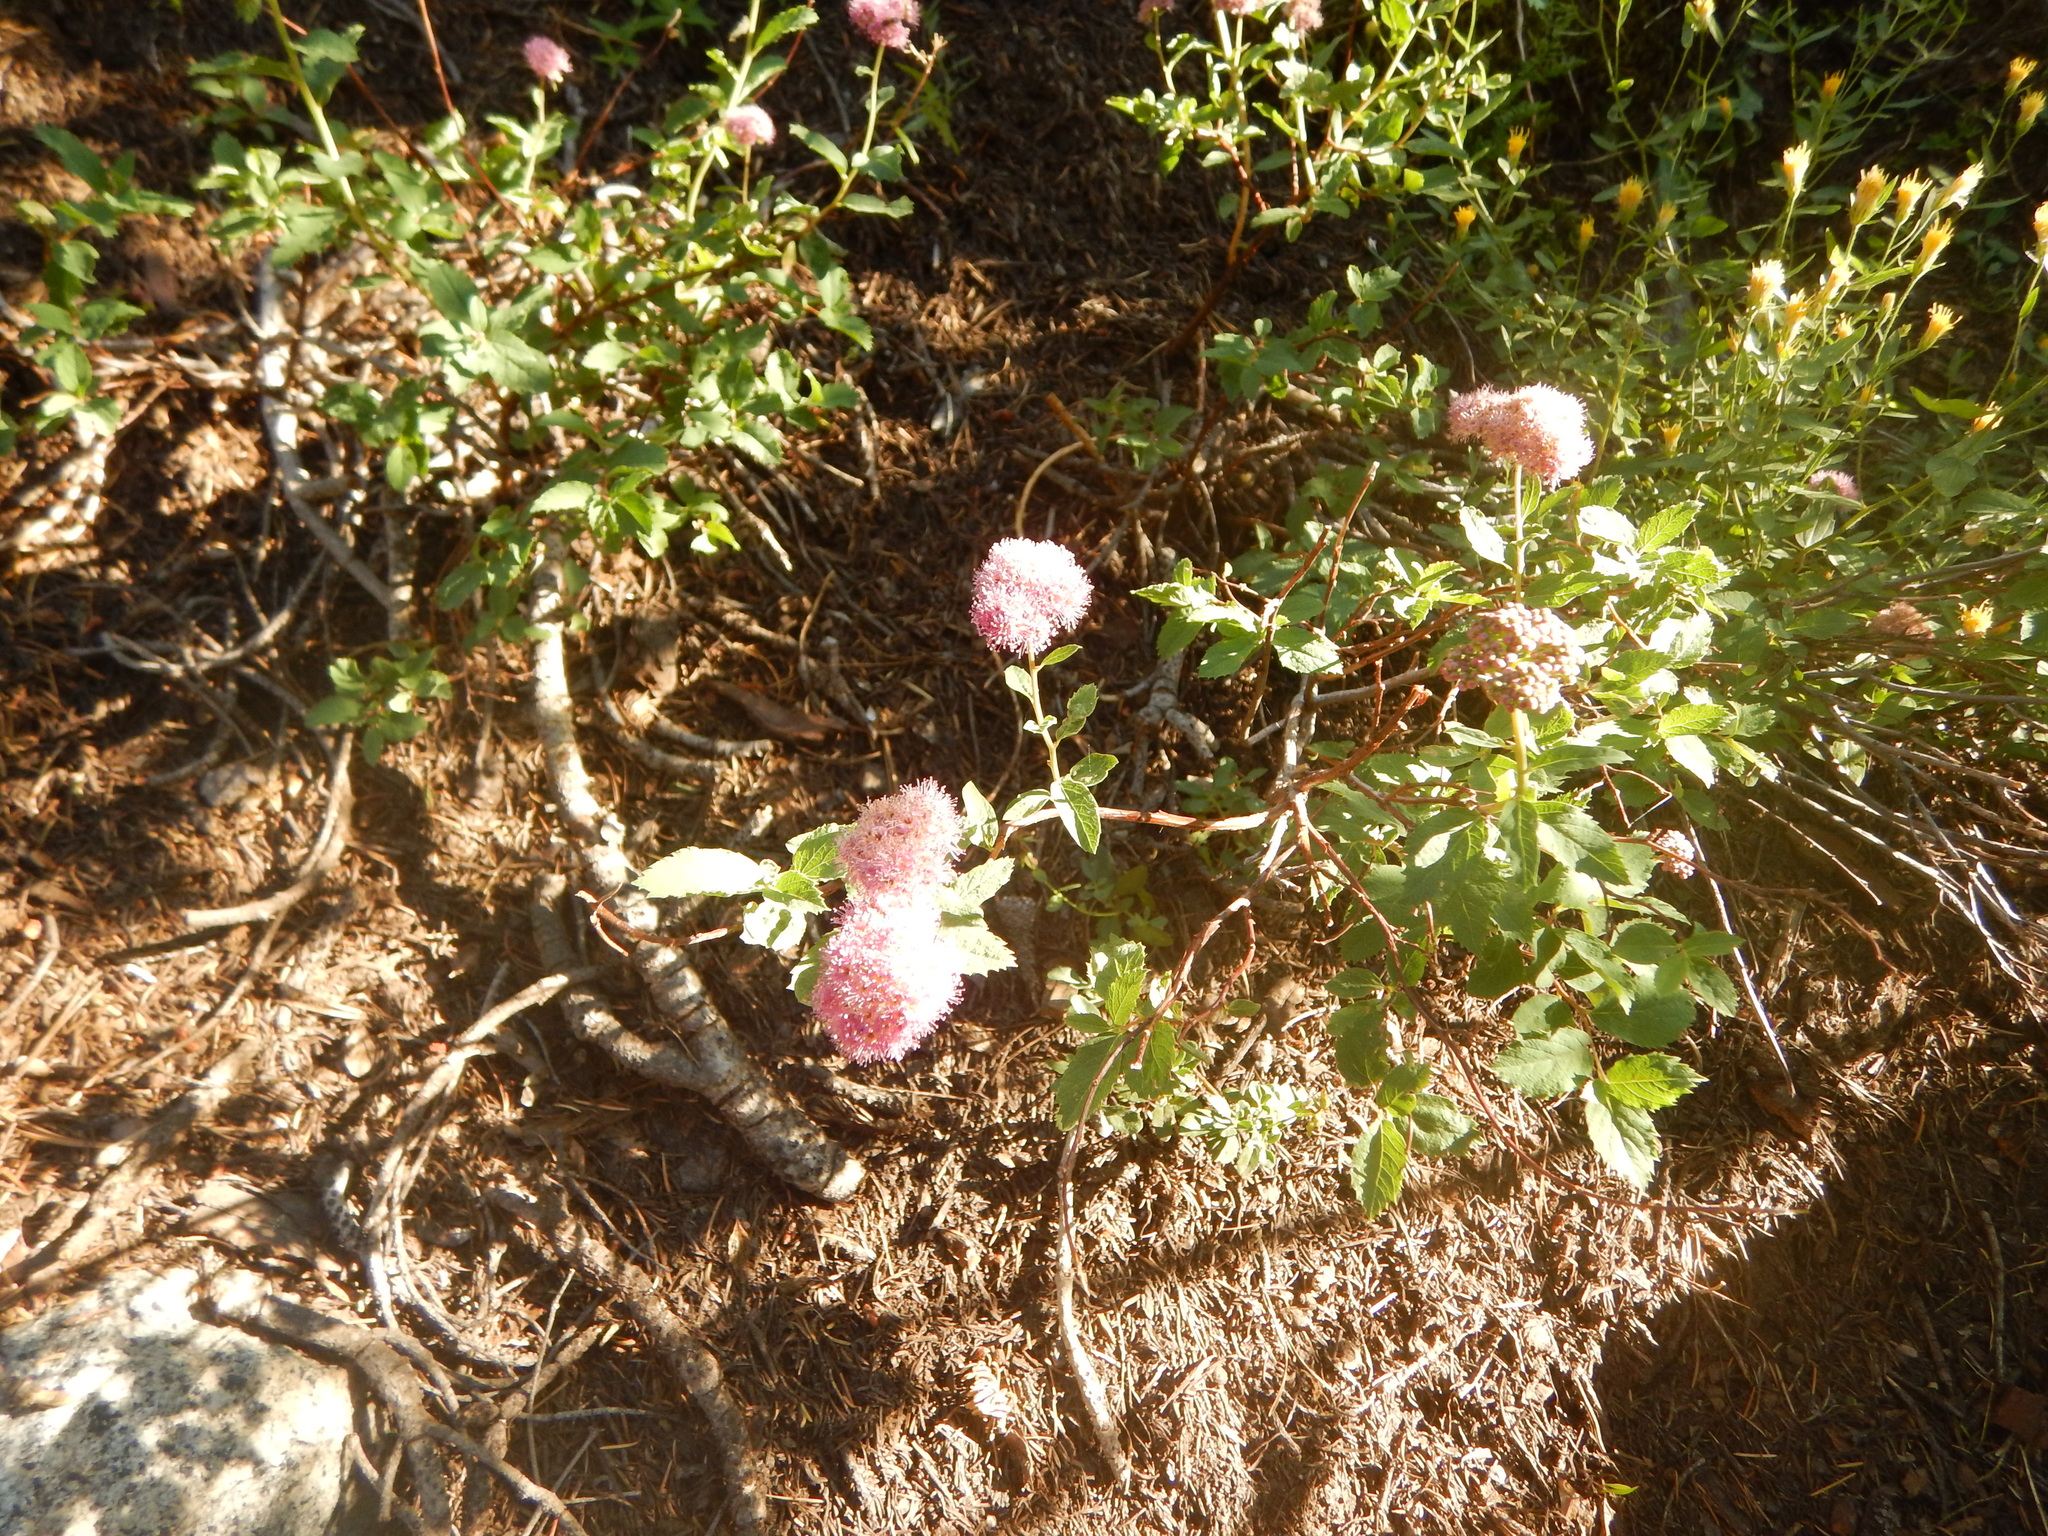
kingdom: Plantae
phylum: Tracheophyta
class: Magnoliopsida
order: Rosales
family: Rosaceae
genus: Spiraea
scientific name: Spiraea splendens
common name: Subalpine meadowsweet
